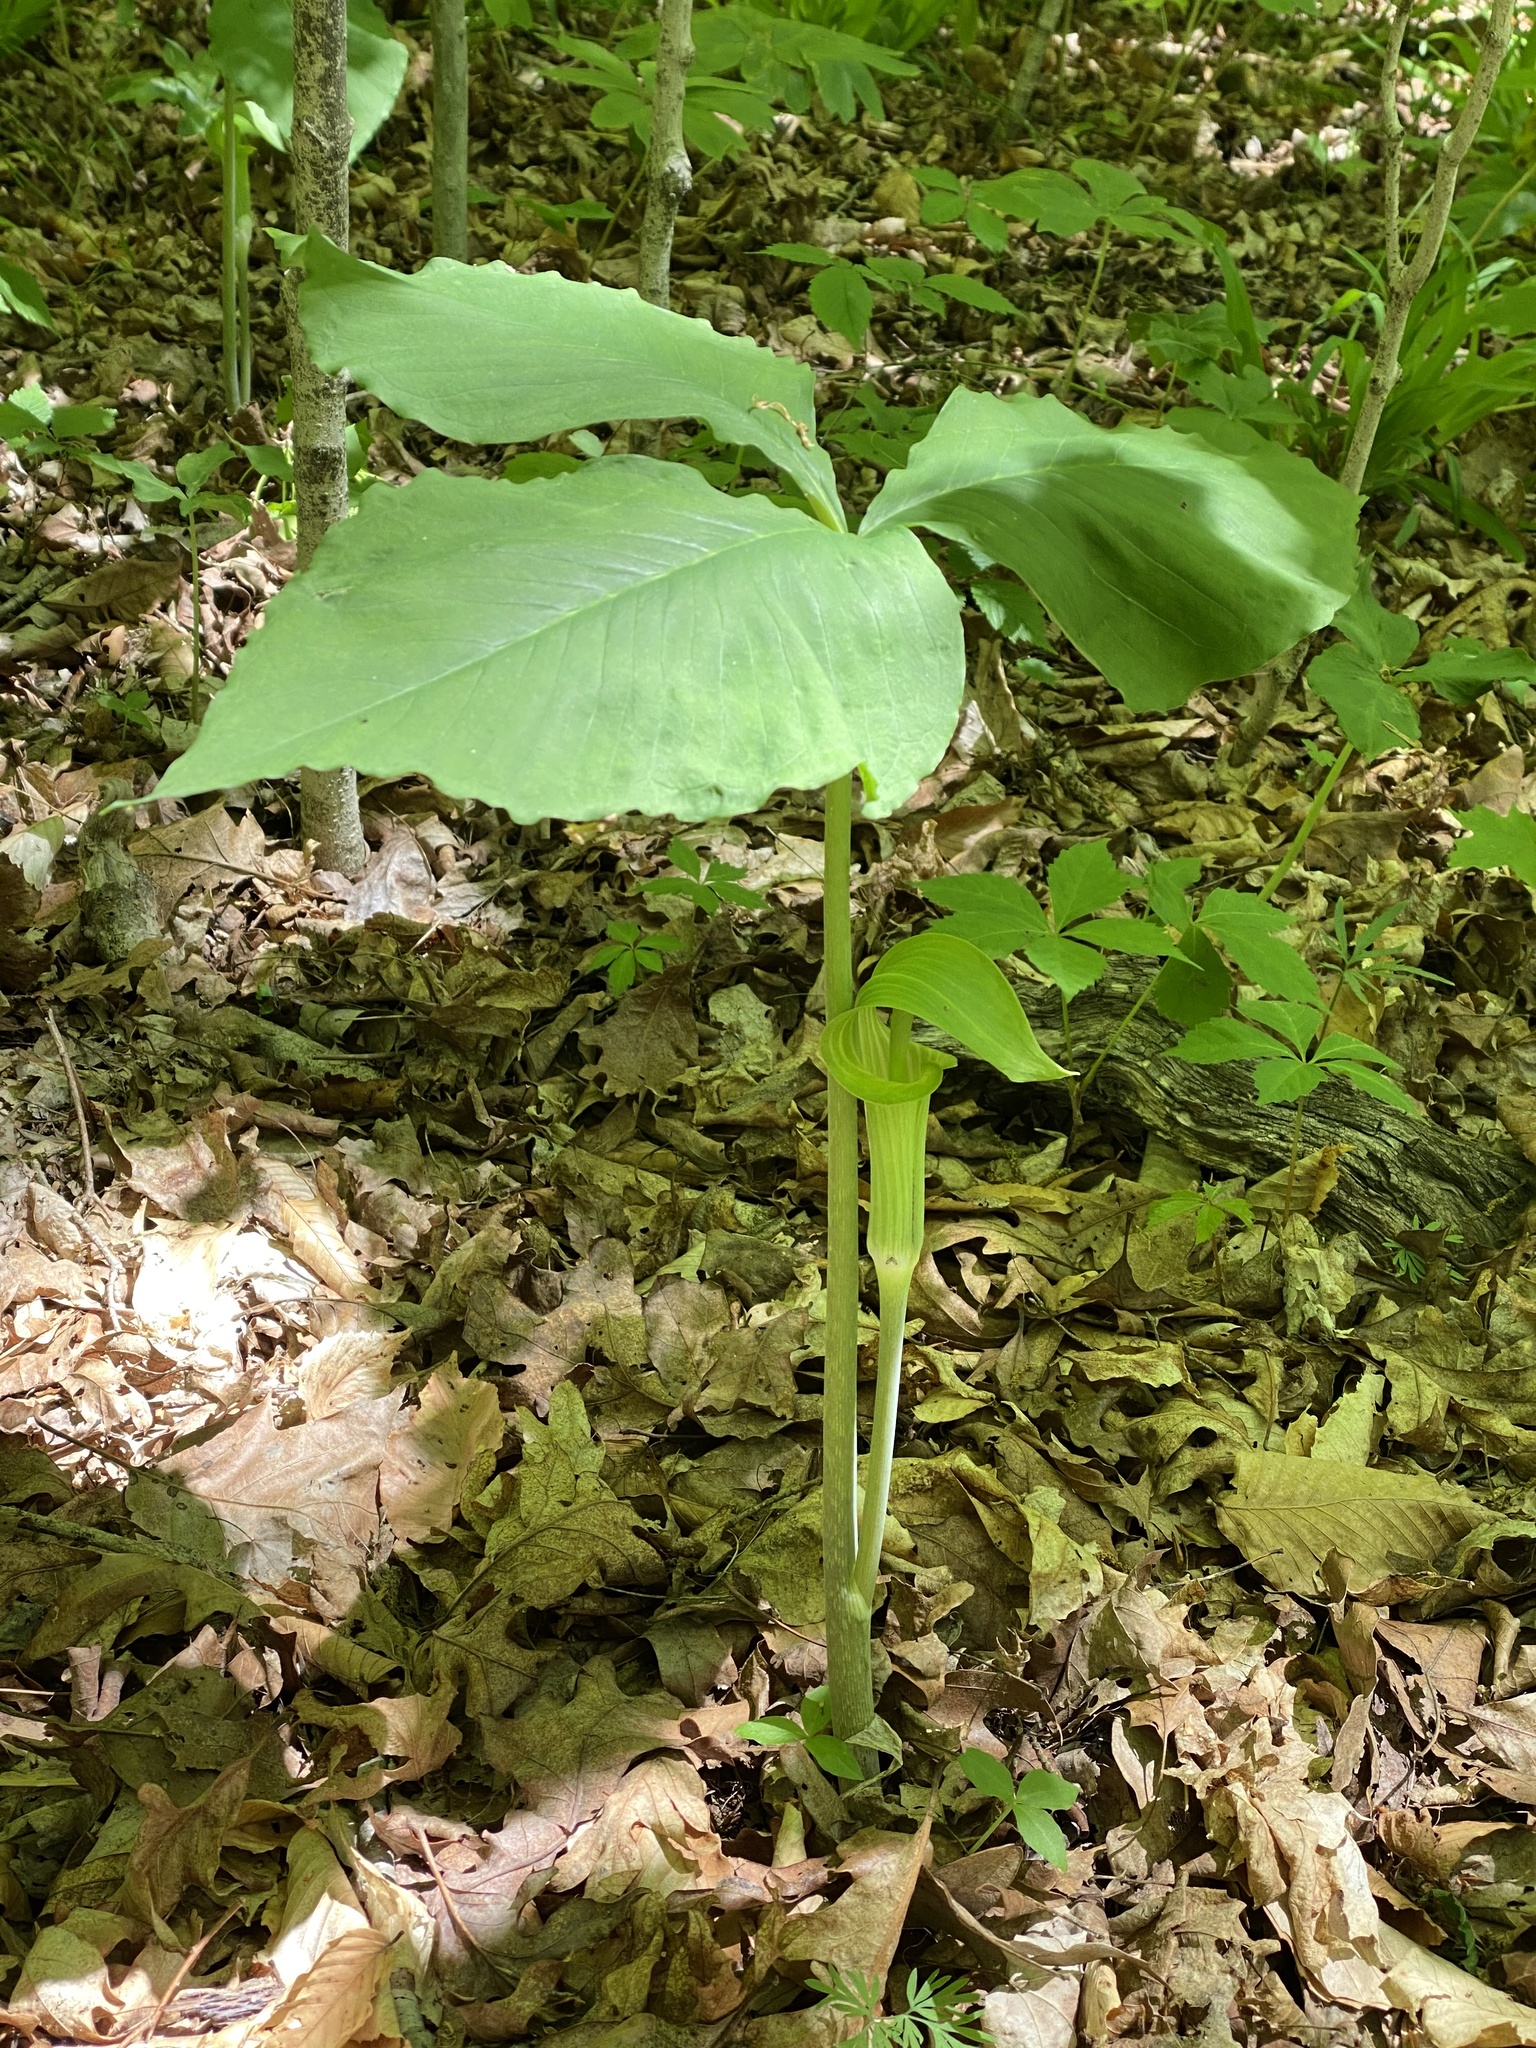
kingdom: Plantae
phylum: Tracheophyta
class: Liliopsida
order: Alismatales
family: Araceae
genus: Arisaema
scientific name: Arisaema triphyllum
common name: Jack-in-the-pulpit
